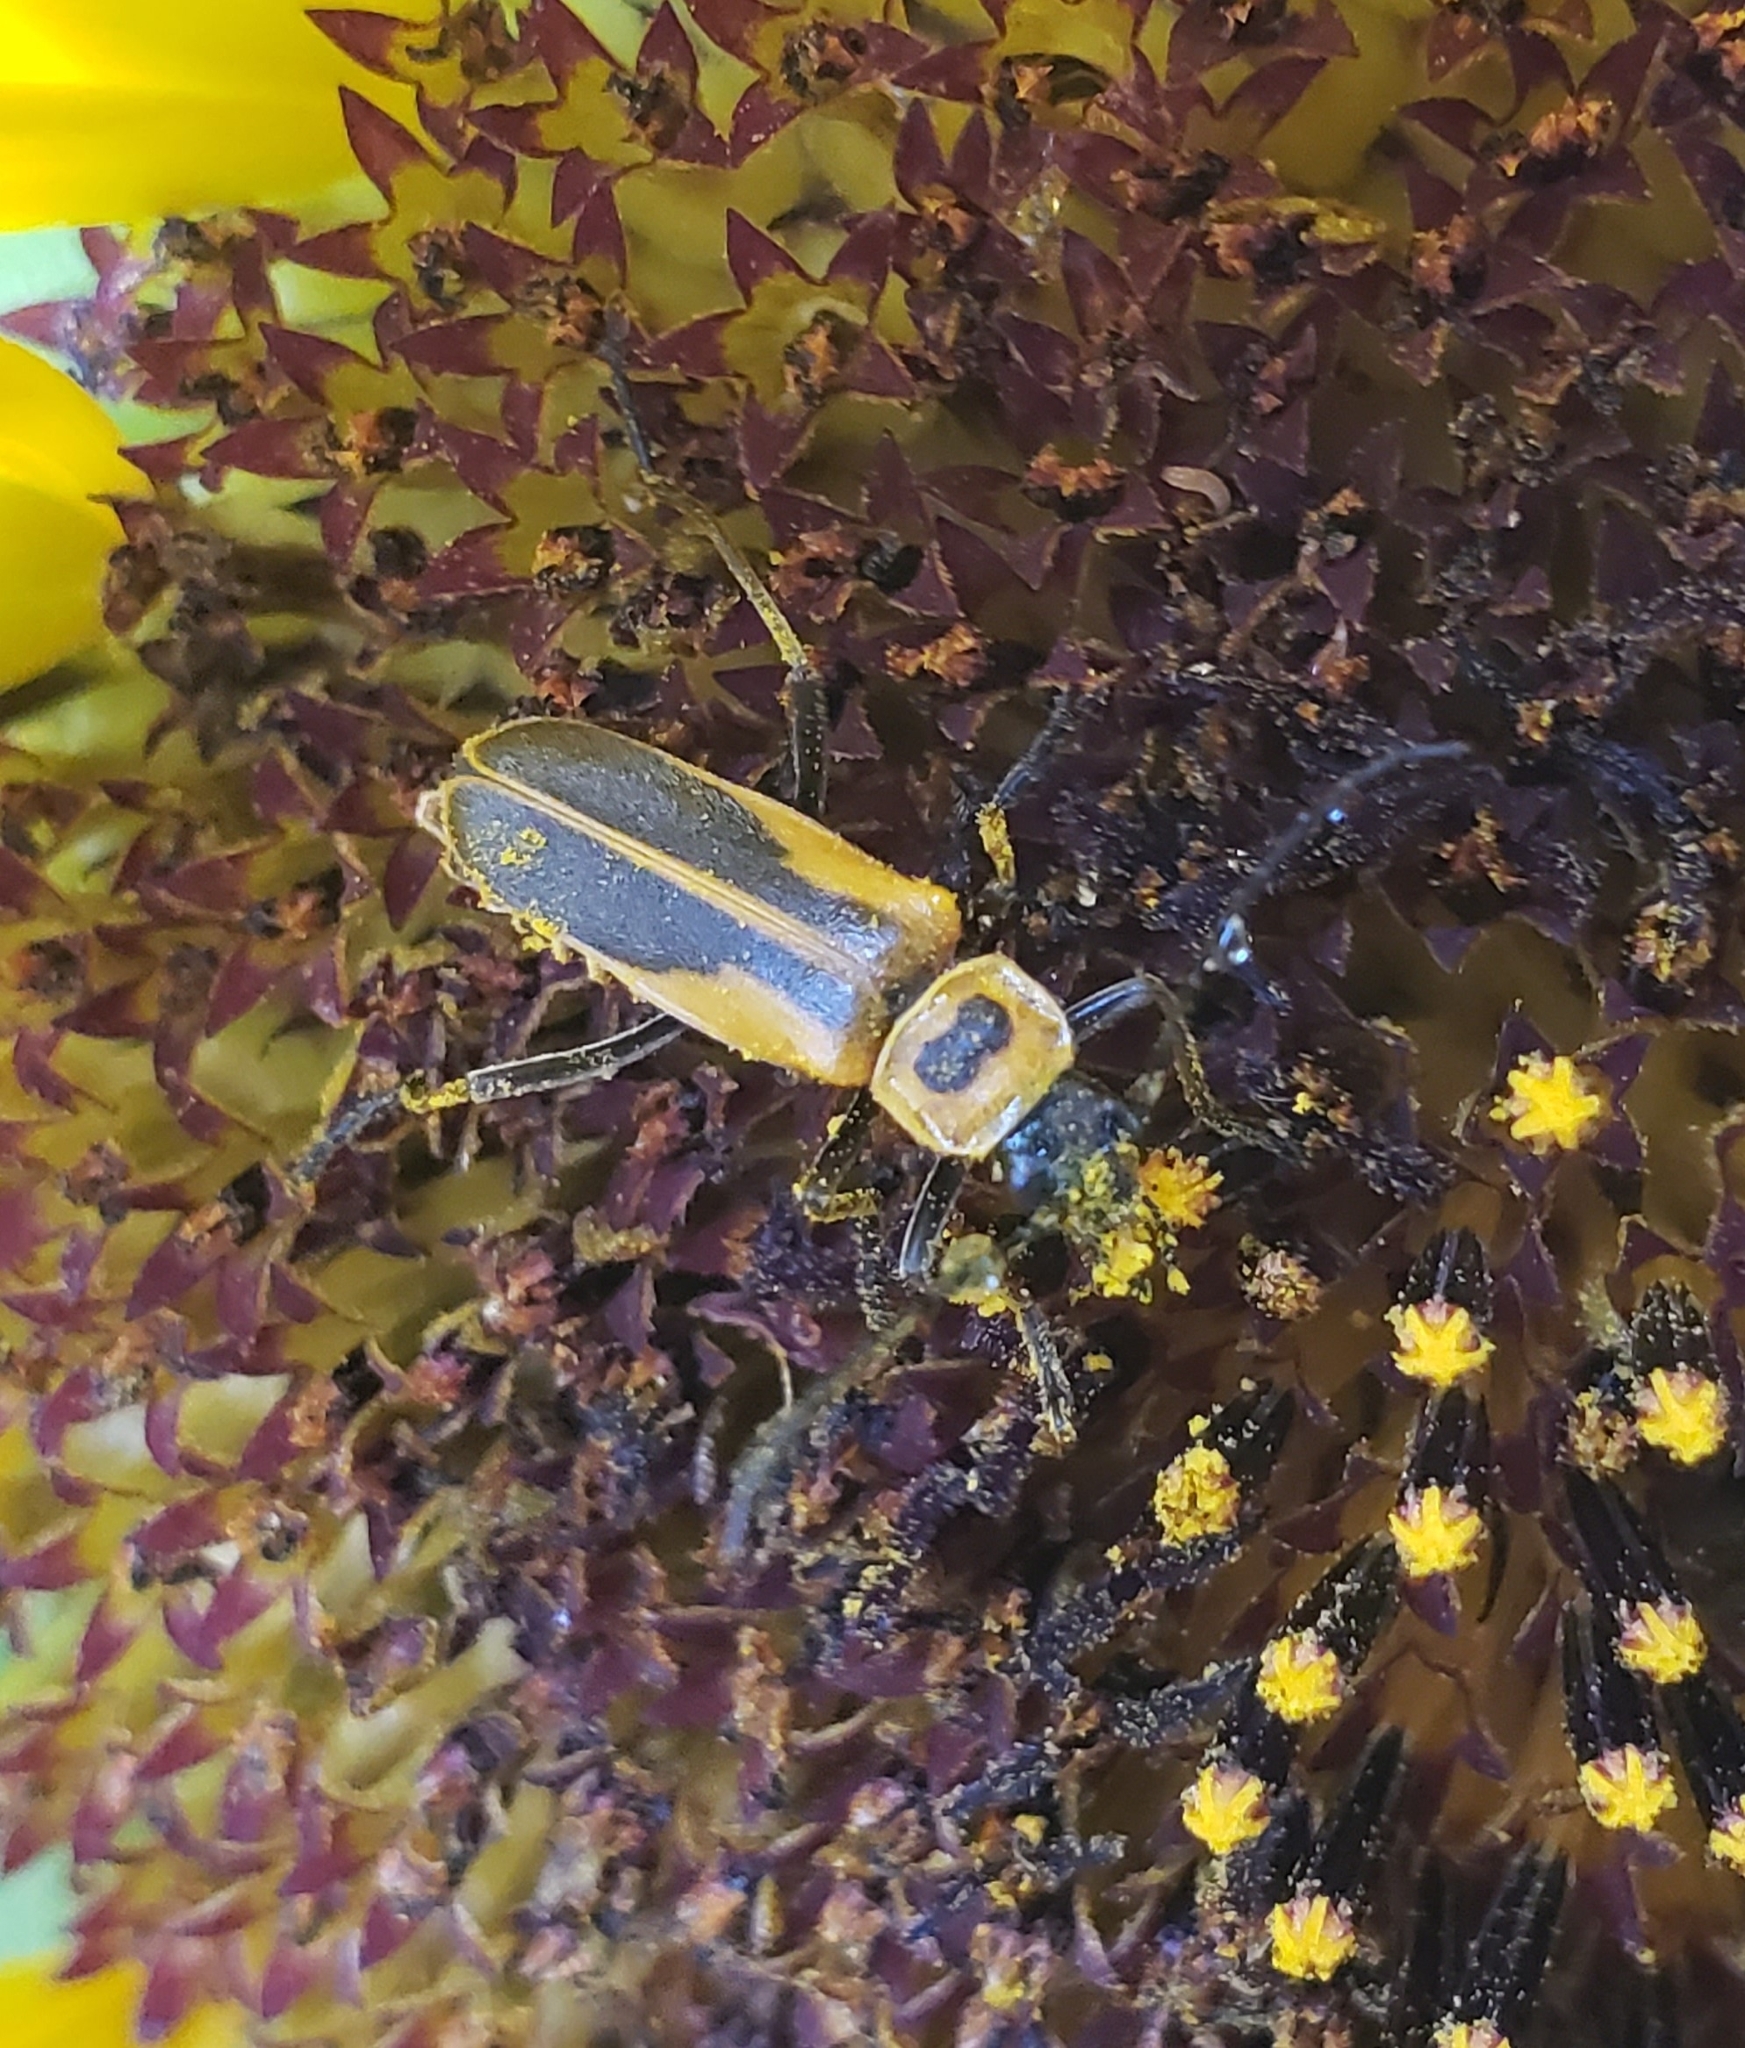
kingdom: Animalia
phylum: Arthropoda
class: Insecta
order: Coleoptera
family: Cantharidae
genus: Chauliognathus
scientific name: Chauliognathus pensylvanicus
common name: Goldenrod soldier beetle
